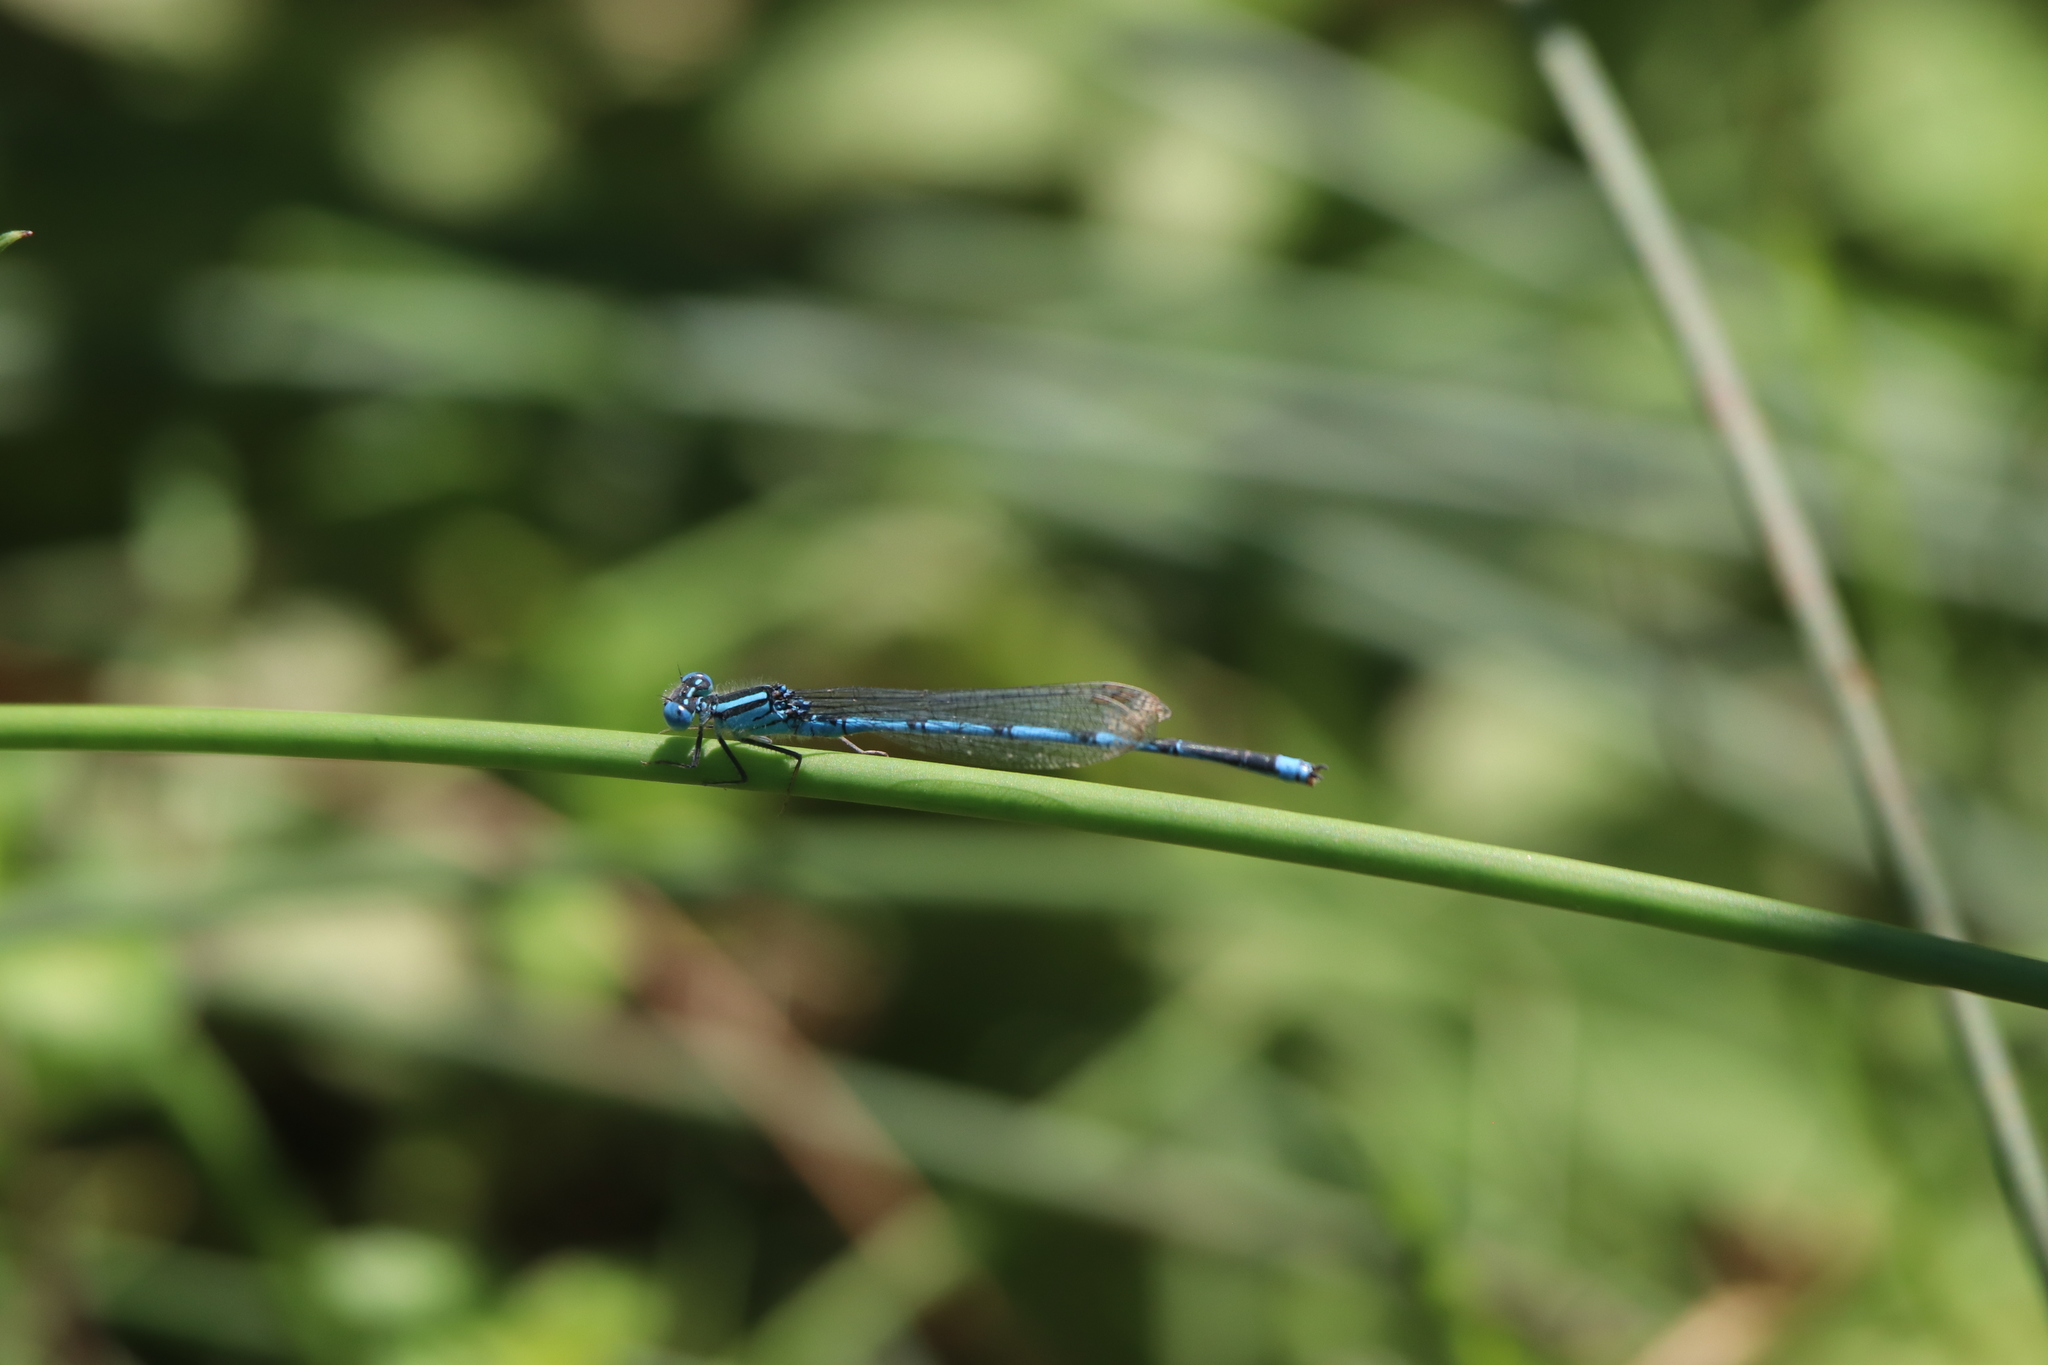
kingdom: Animalia
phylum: Arthropoda
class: Insecta
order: Odonata
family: Coenagrionidae
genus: Erythromma
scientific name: Erythromma lindenii
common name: Blue-eye
